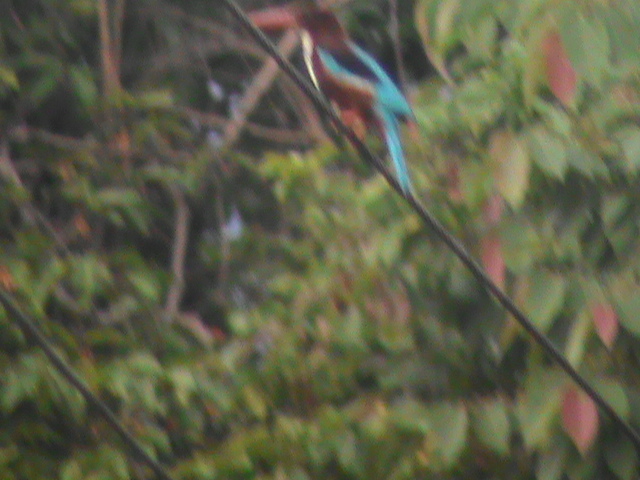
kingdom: Animalia
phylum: Chordata
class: Aves
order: Coraciiformes
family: Alcedinidae
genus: Halcyon
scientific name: Halcyon smyrnensis
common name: White-throated kingfisher
